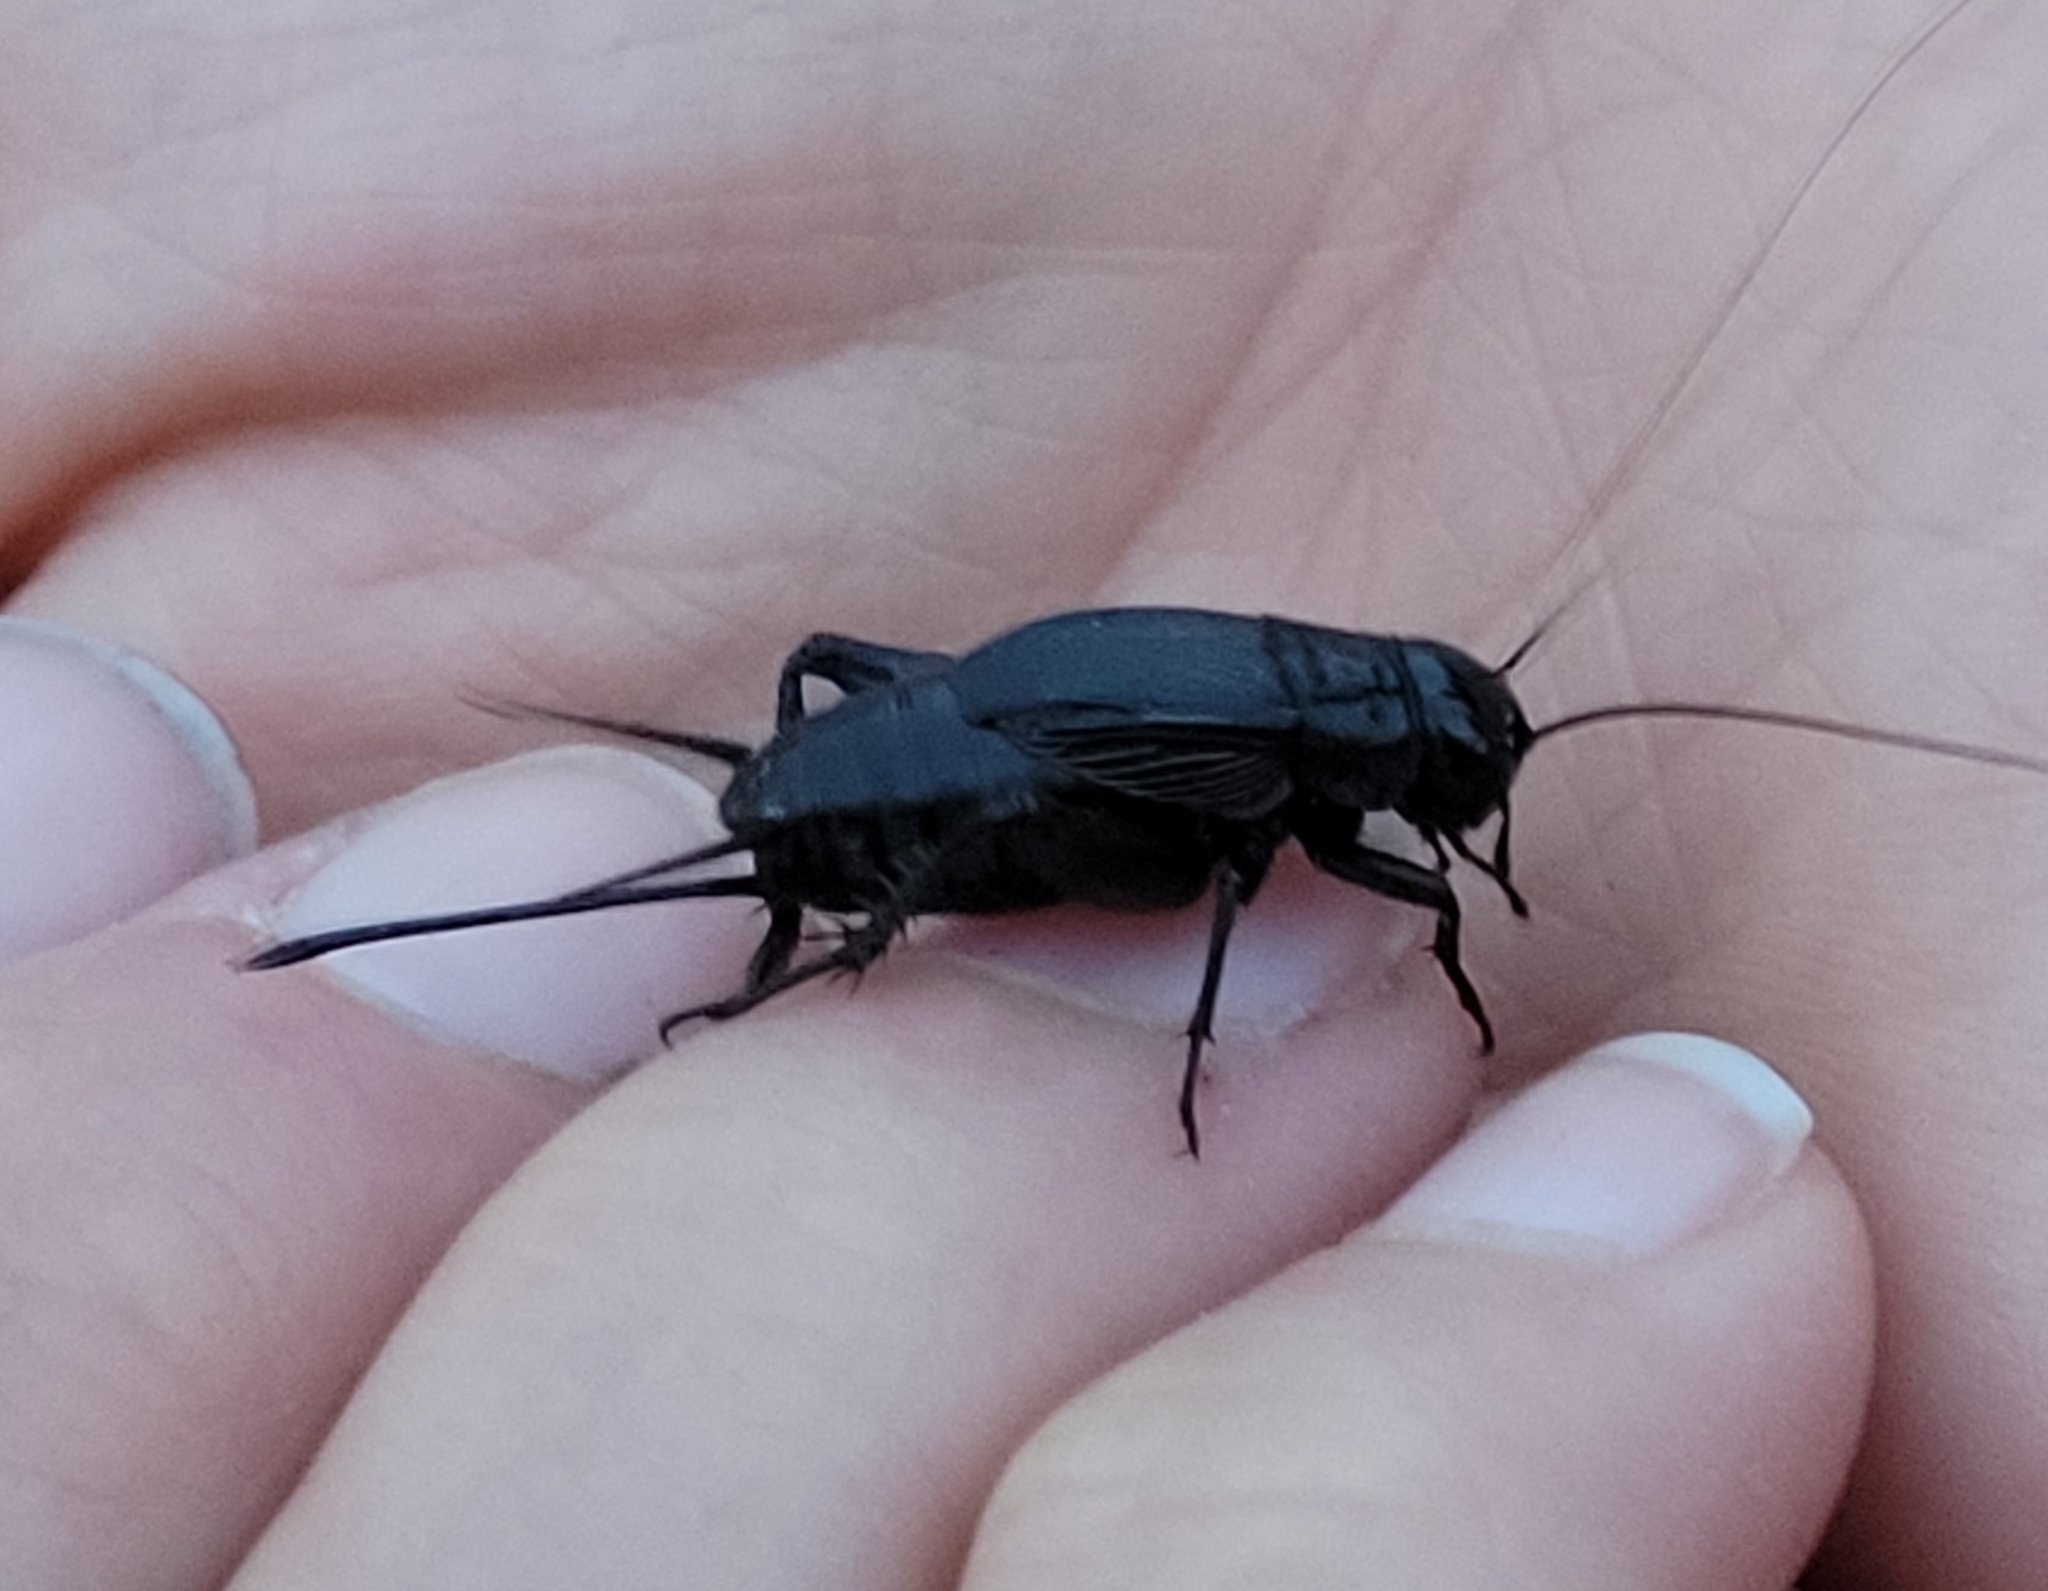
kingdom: Animalia
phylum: Arthropoda
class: Insecta
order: Orthoptera
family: Gryllidae
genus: Gryllus
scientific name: Gryllus pennsylvanicus
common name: Fall field cricket
